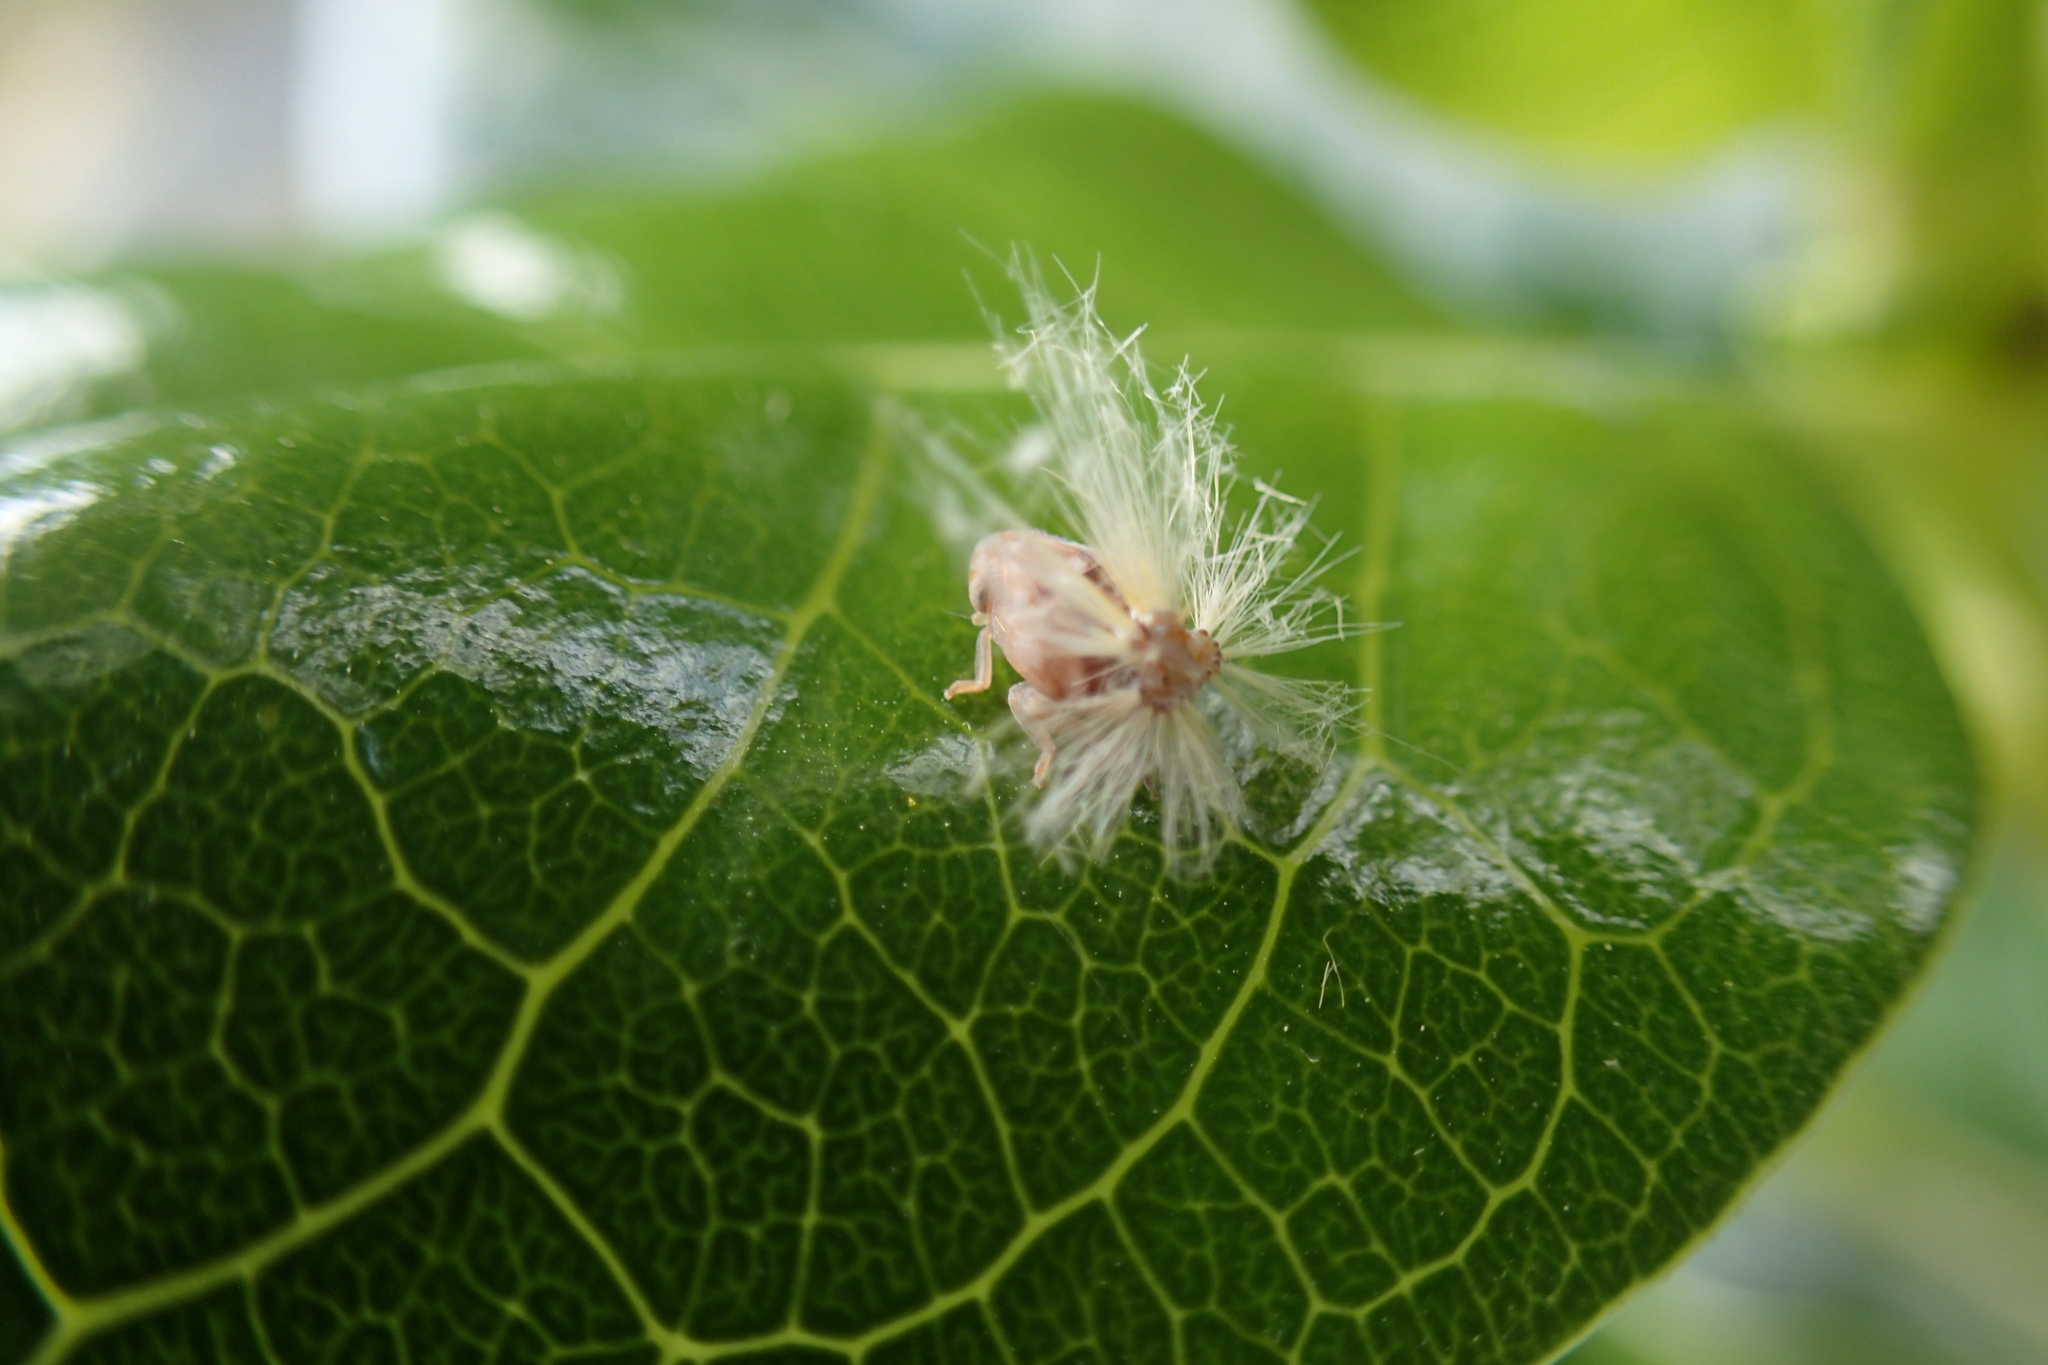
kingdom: Animalia
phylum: Arthropoda
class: Insecta
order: Hemiptera
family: Ricaniidae
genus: Scolypopa
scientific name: Scolypopa australis
